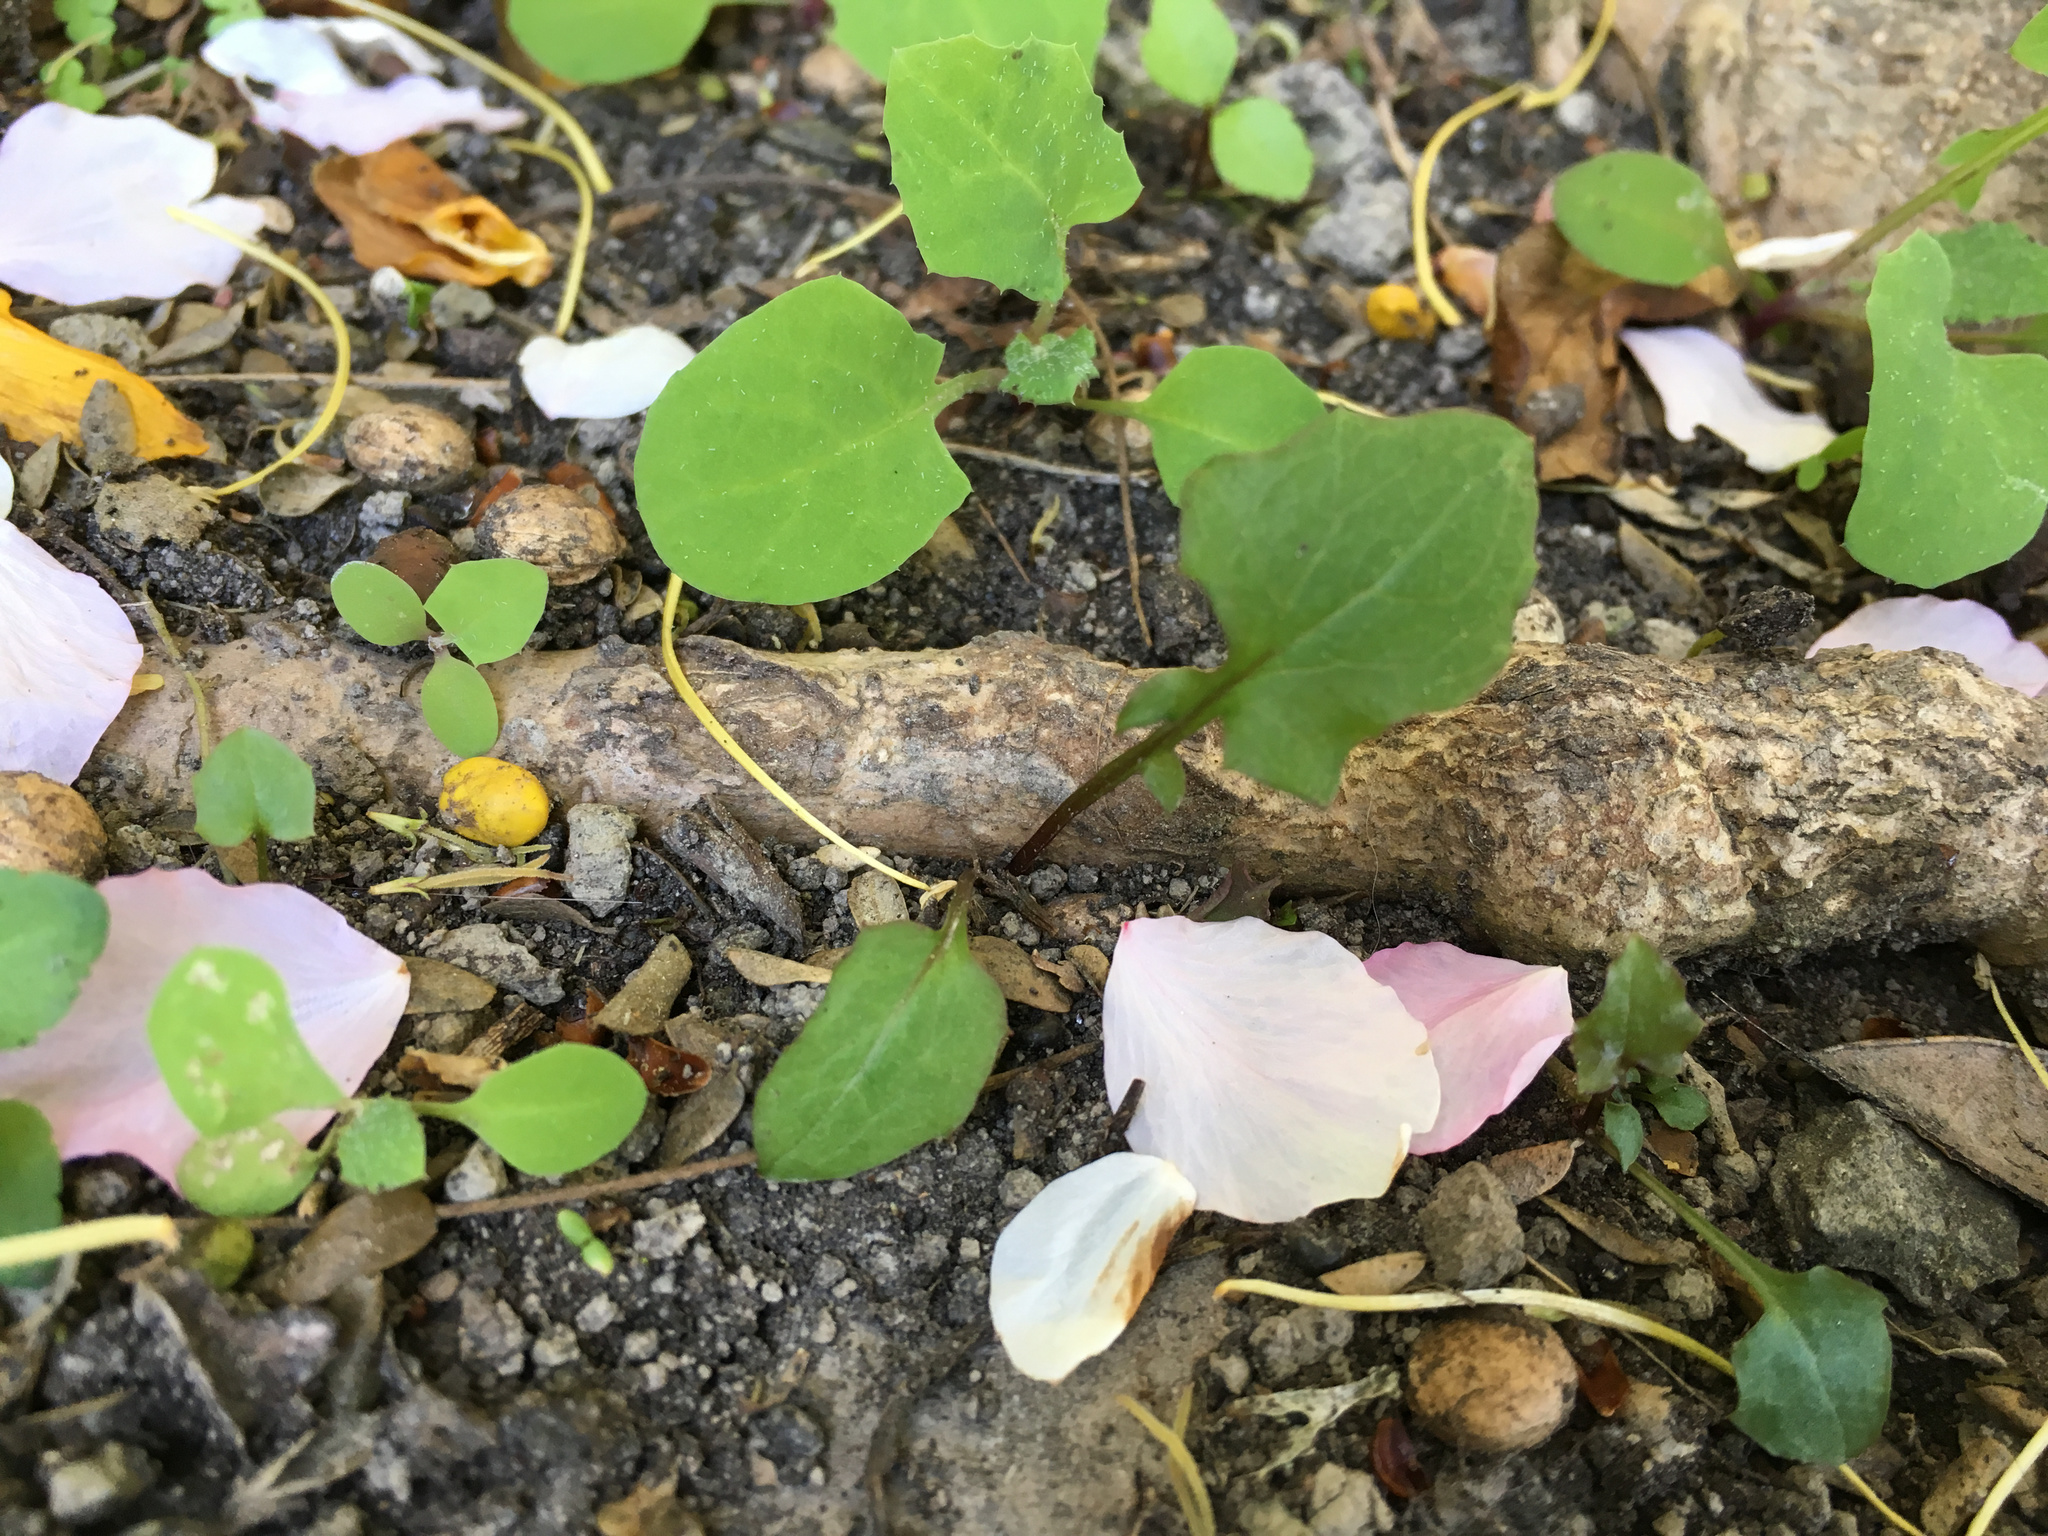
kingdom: Plantae
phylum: Tracheophyta
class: Magnoliopsida
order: Asterales
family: Asteraceae
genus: Mycelis
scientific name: Mycelis muralis
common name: Wall lettuce
